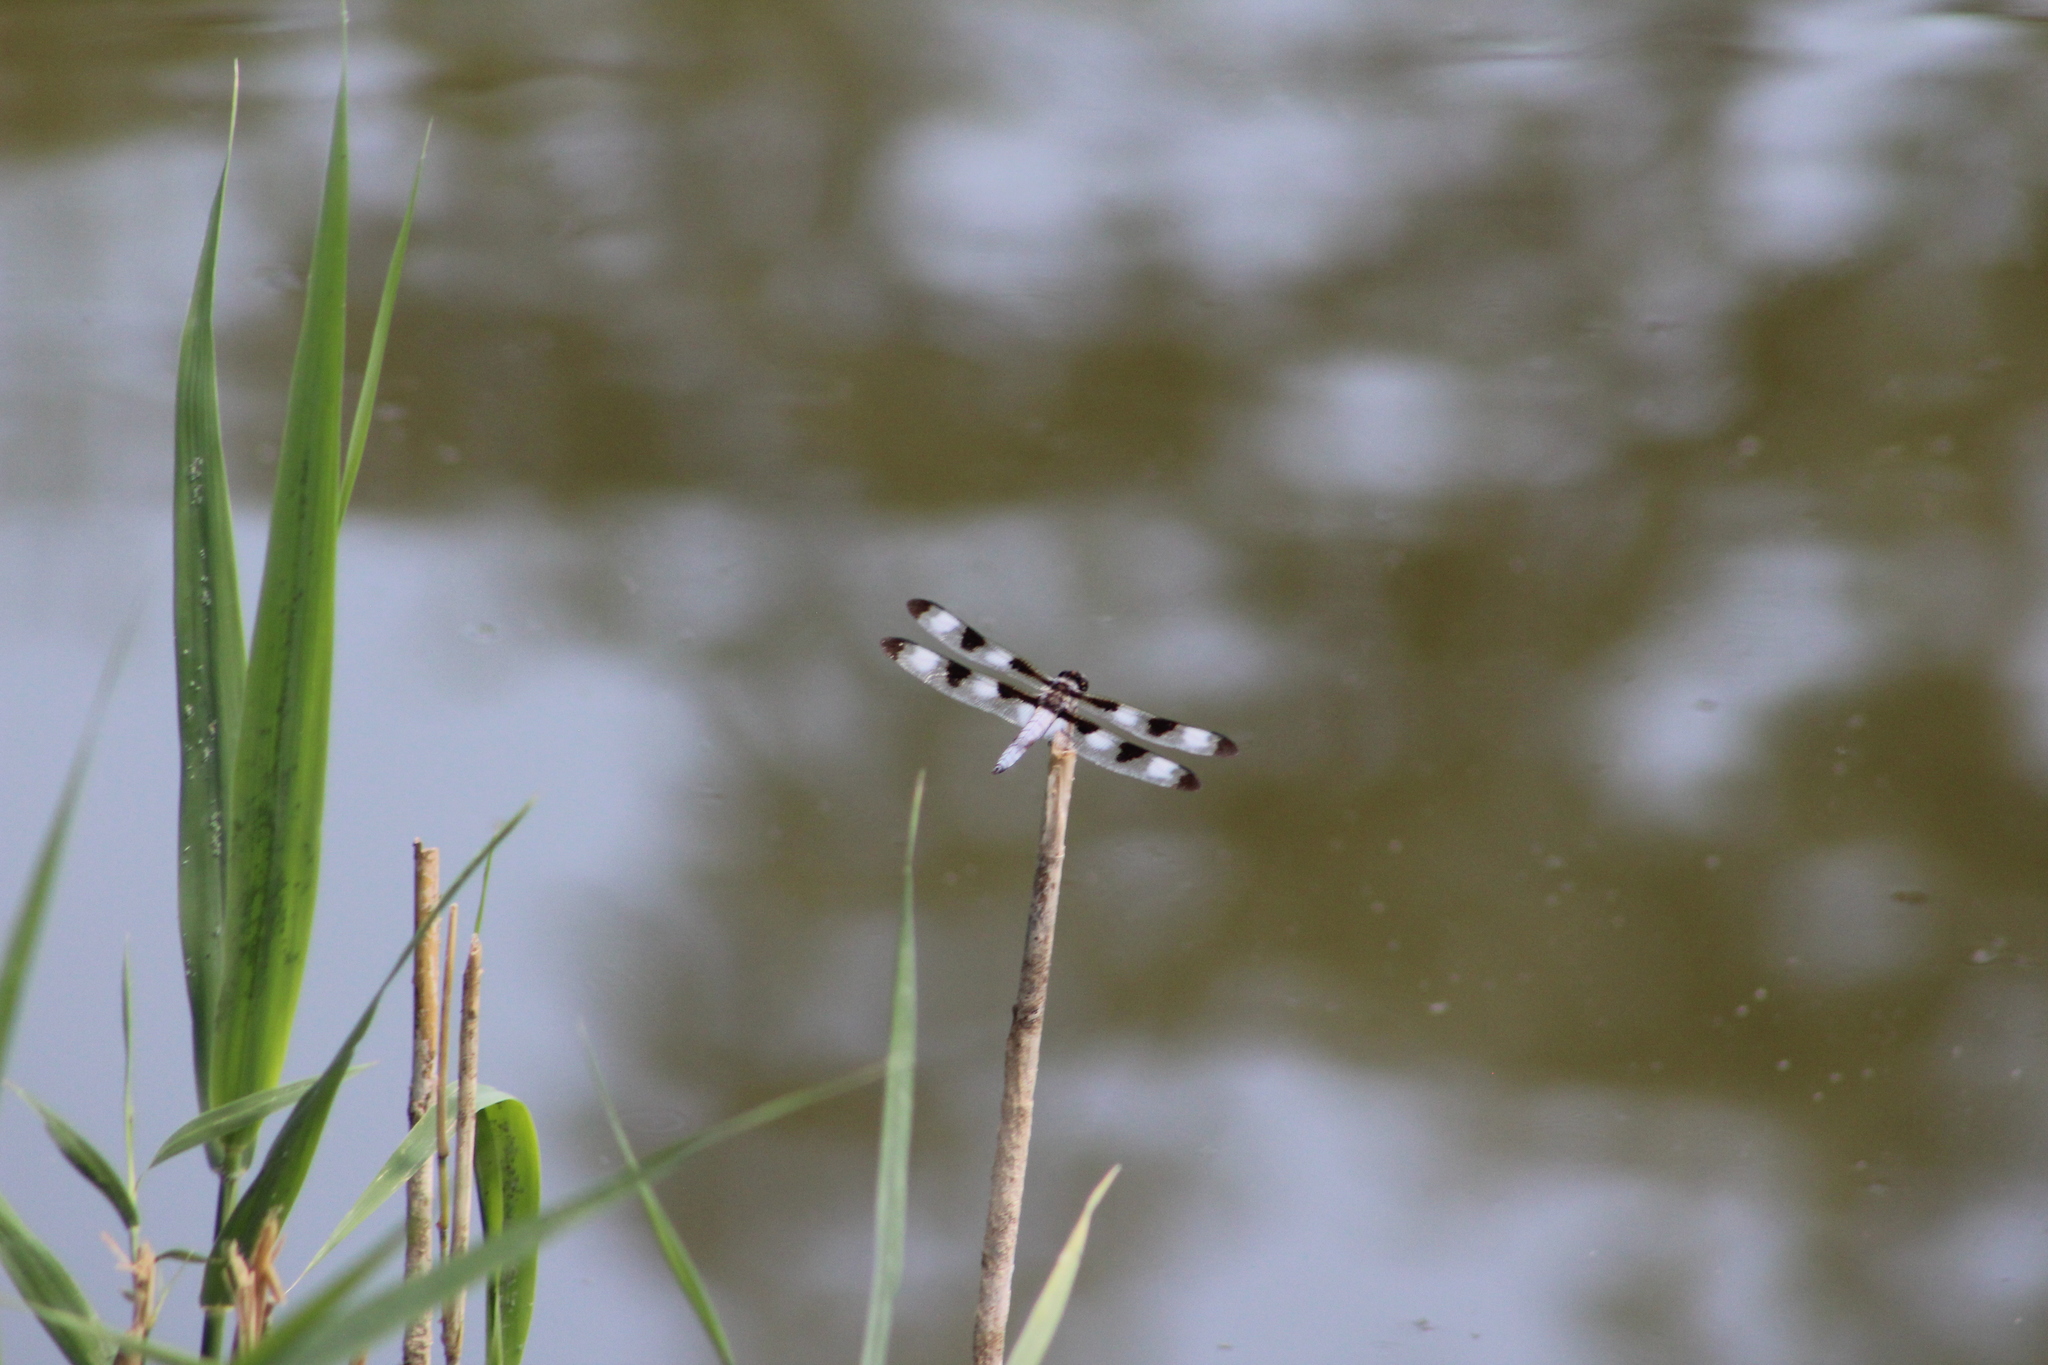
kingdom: Animalia
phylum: Arthropoda
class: Insecta
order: Odonata
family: Libellulidae
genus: Libellula
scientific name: Libellula pulchella
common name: Twelve-spotted skimmer
